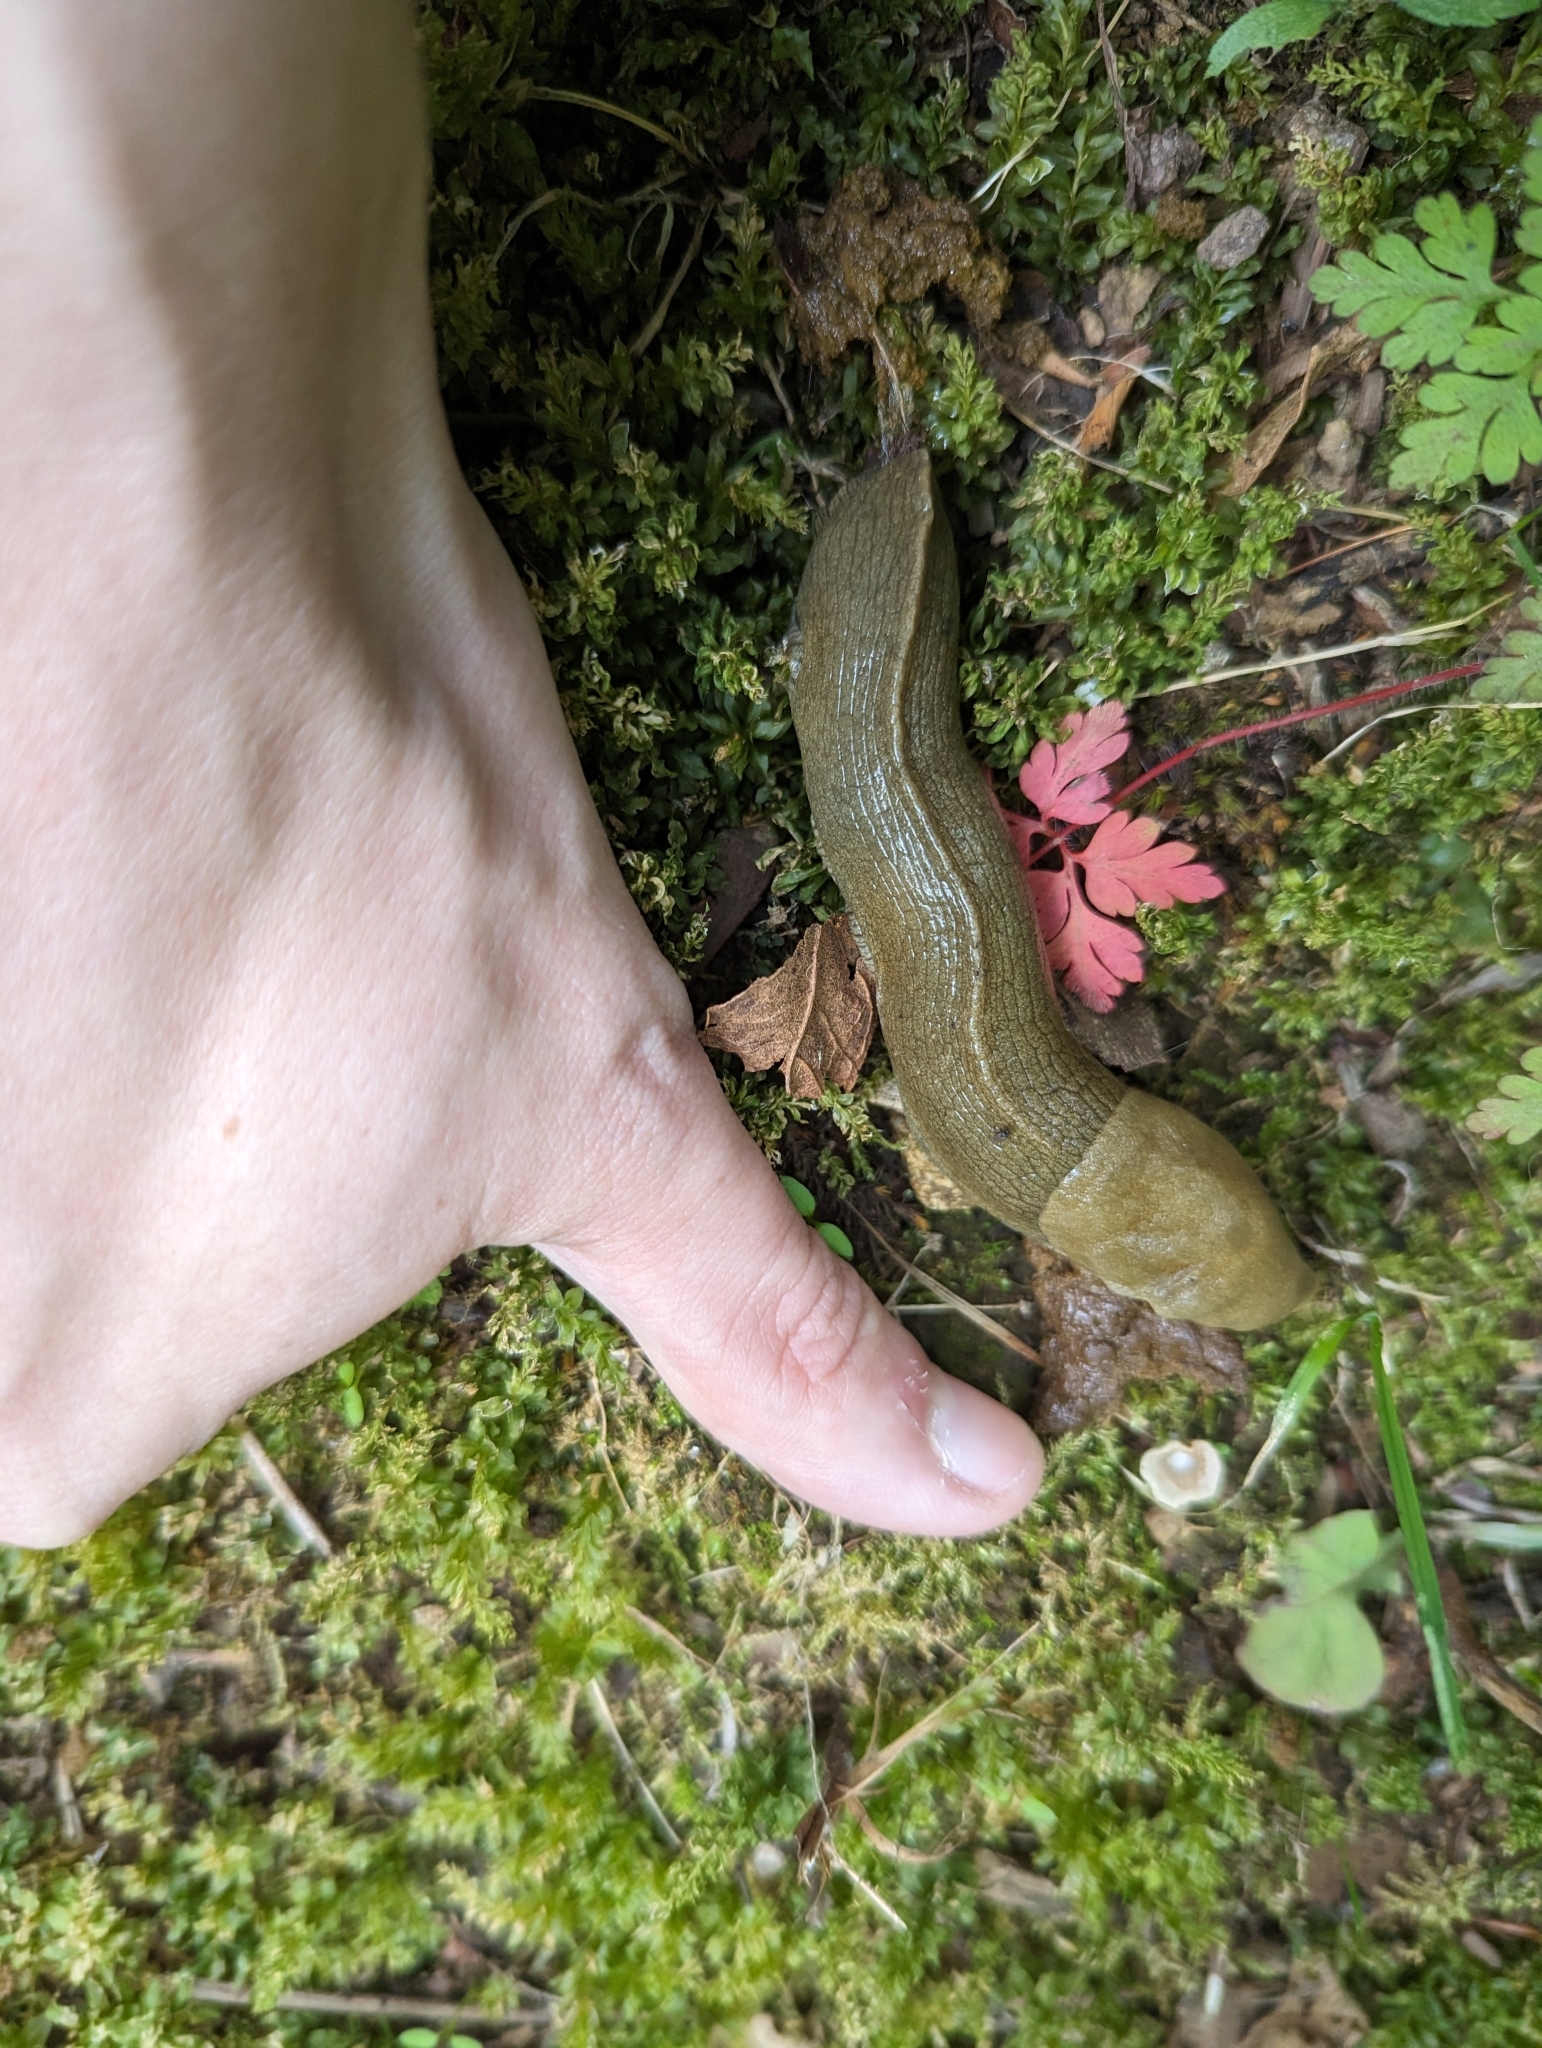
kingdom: Animalia
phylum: Mollusca
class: Gastropoda
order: Stylommatophora
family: Ariolimacidae
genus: Ariolimax
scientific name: Ariolimax columbianus
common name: Pacific banana slug
